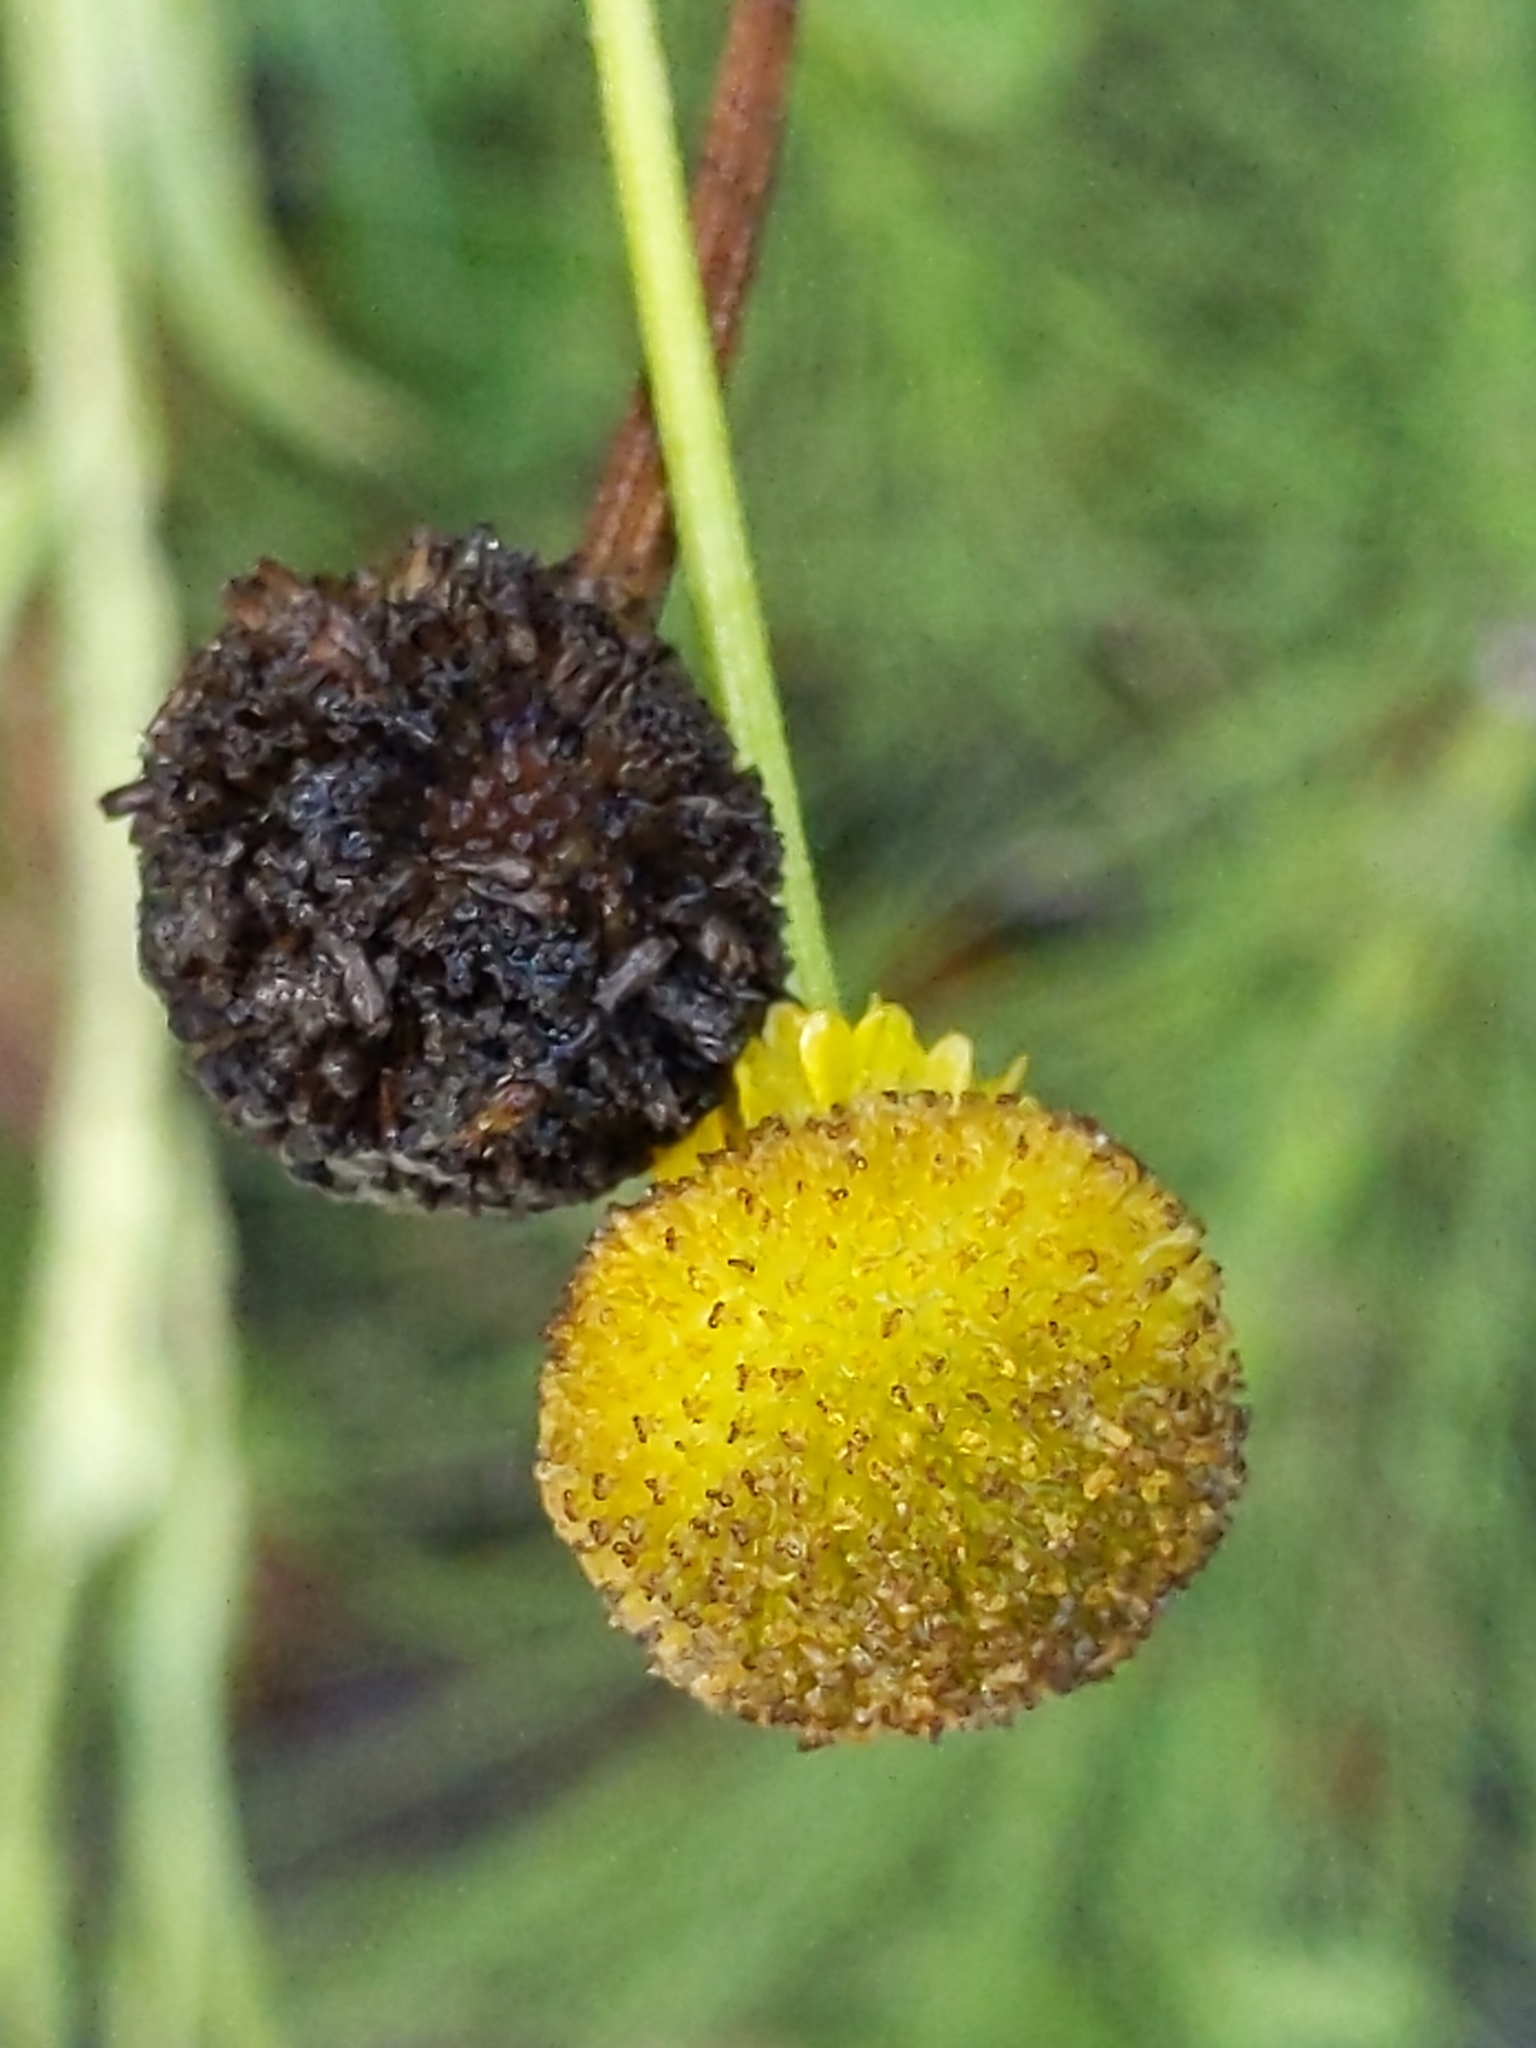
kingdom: Plantae
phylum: Tracheophyta
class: Magnoliopsida
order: Asterales
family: Asteraceae
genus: Helenium
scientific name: Helenium puberulum
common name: Sneezewort
